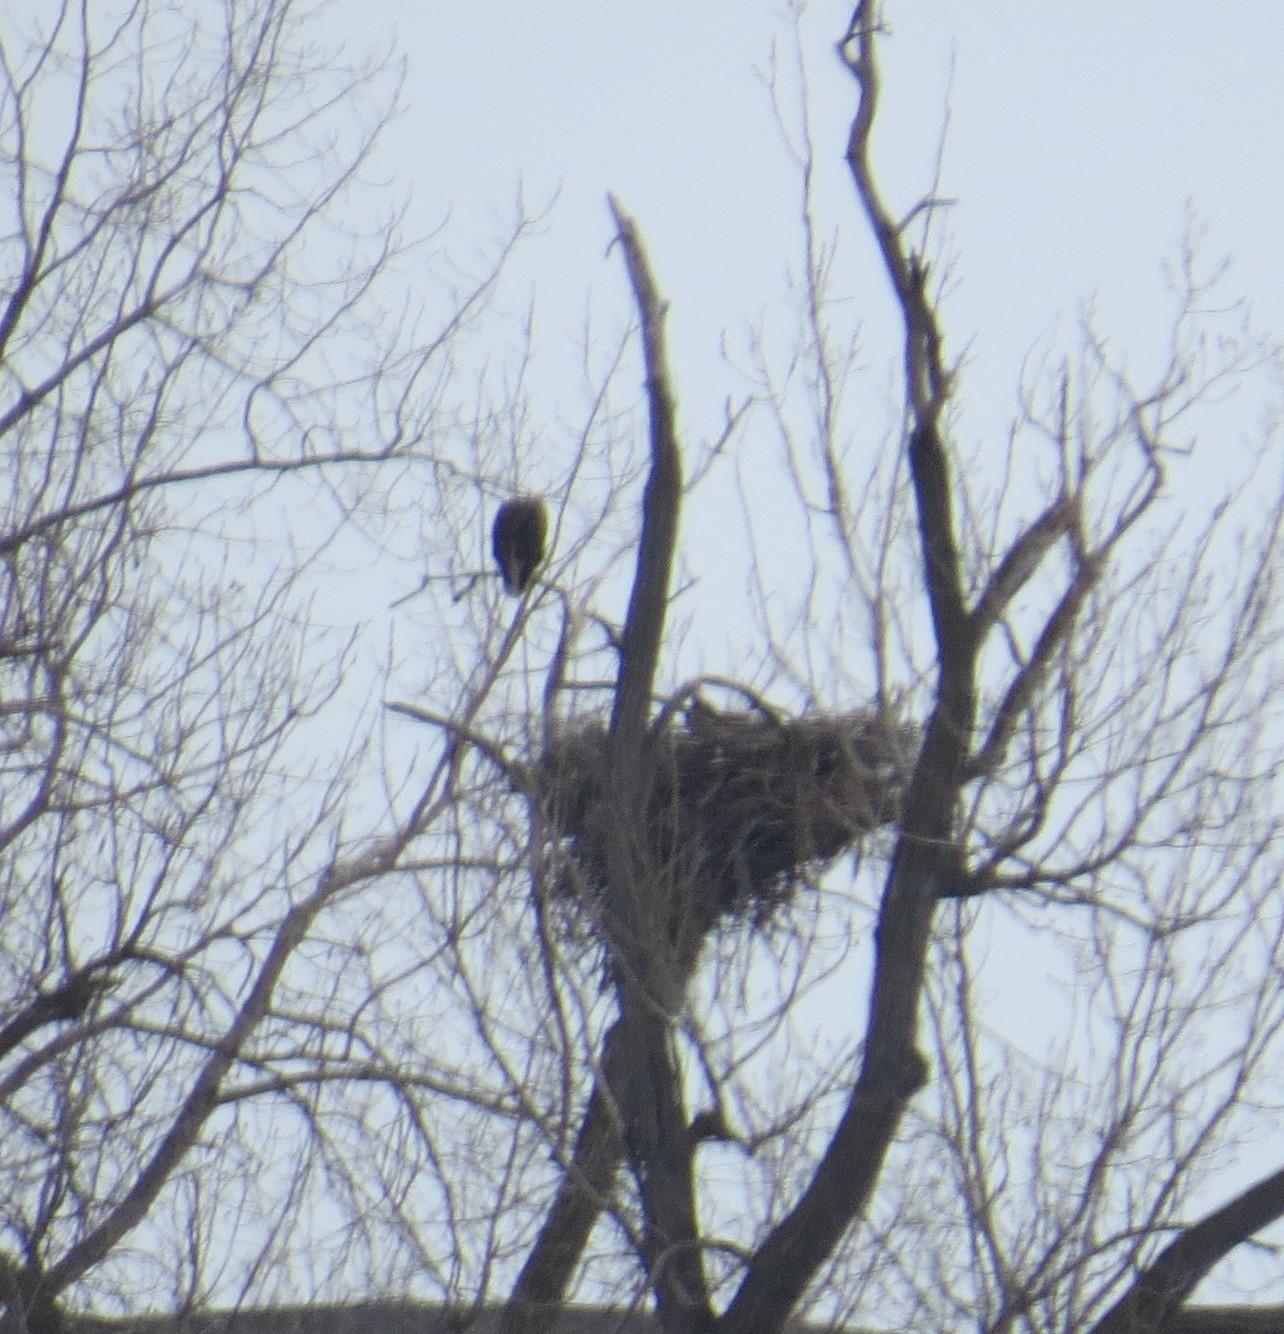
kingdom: Animalia
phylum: Chordata
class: Aves
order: Accipitriformes
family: Accipitridae
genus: Haliaeetus
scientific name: Haliaeetus leucocephalus
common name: Bald eagle
